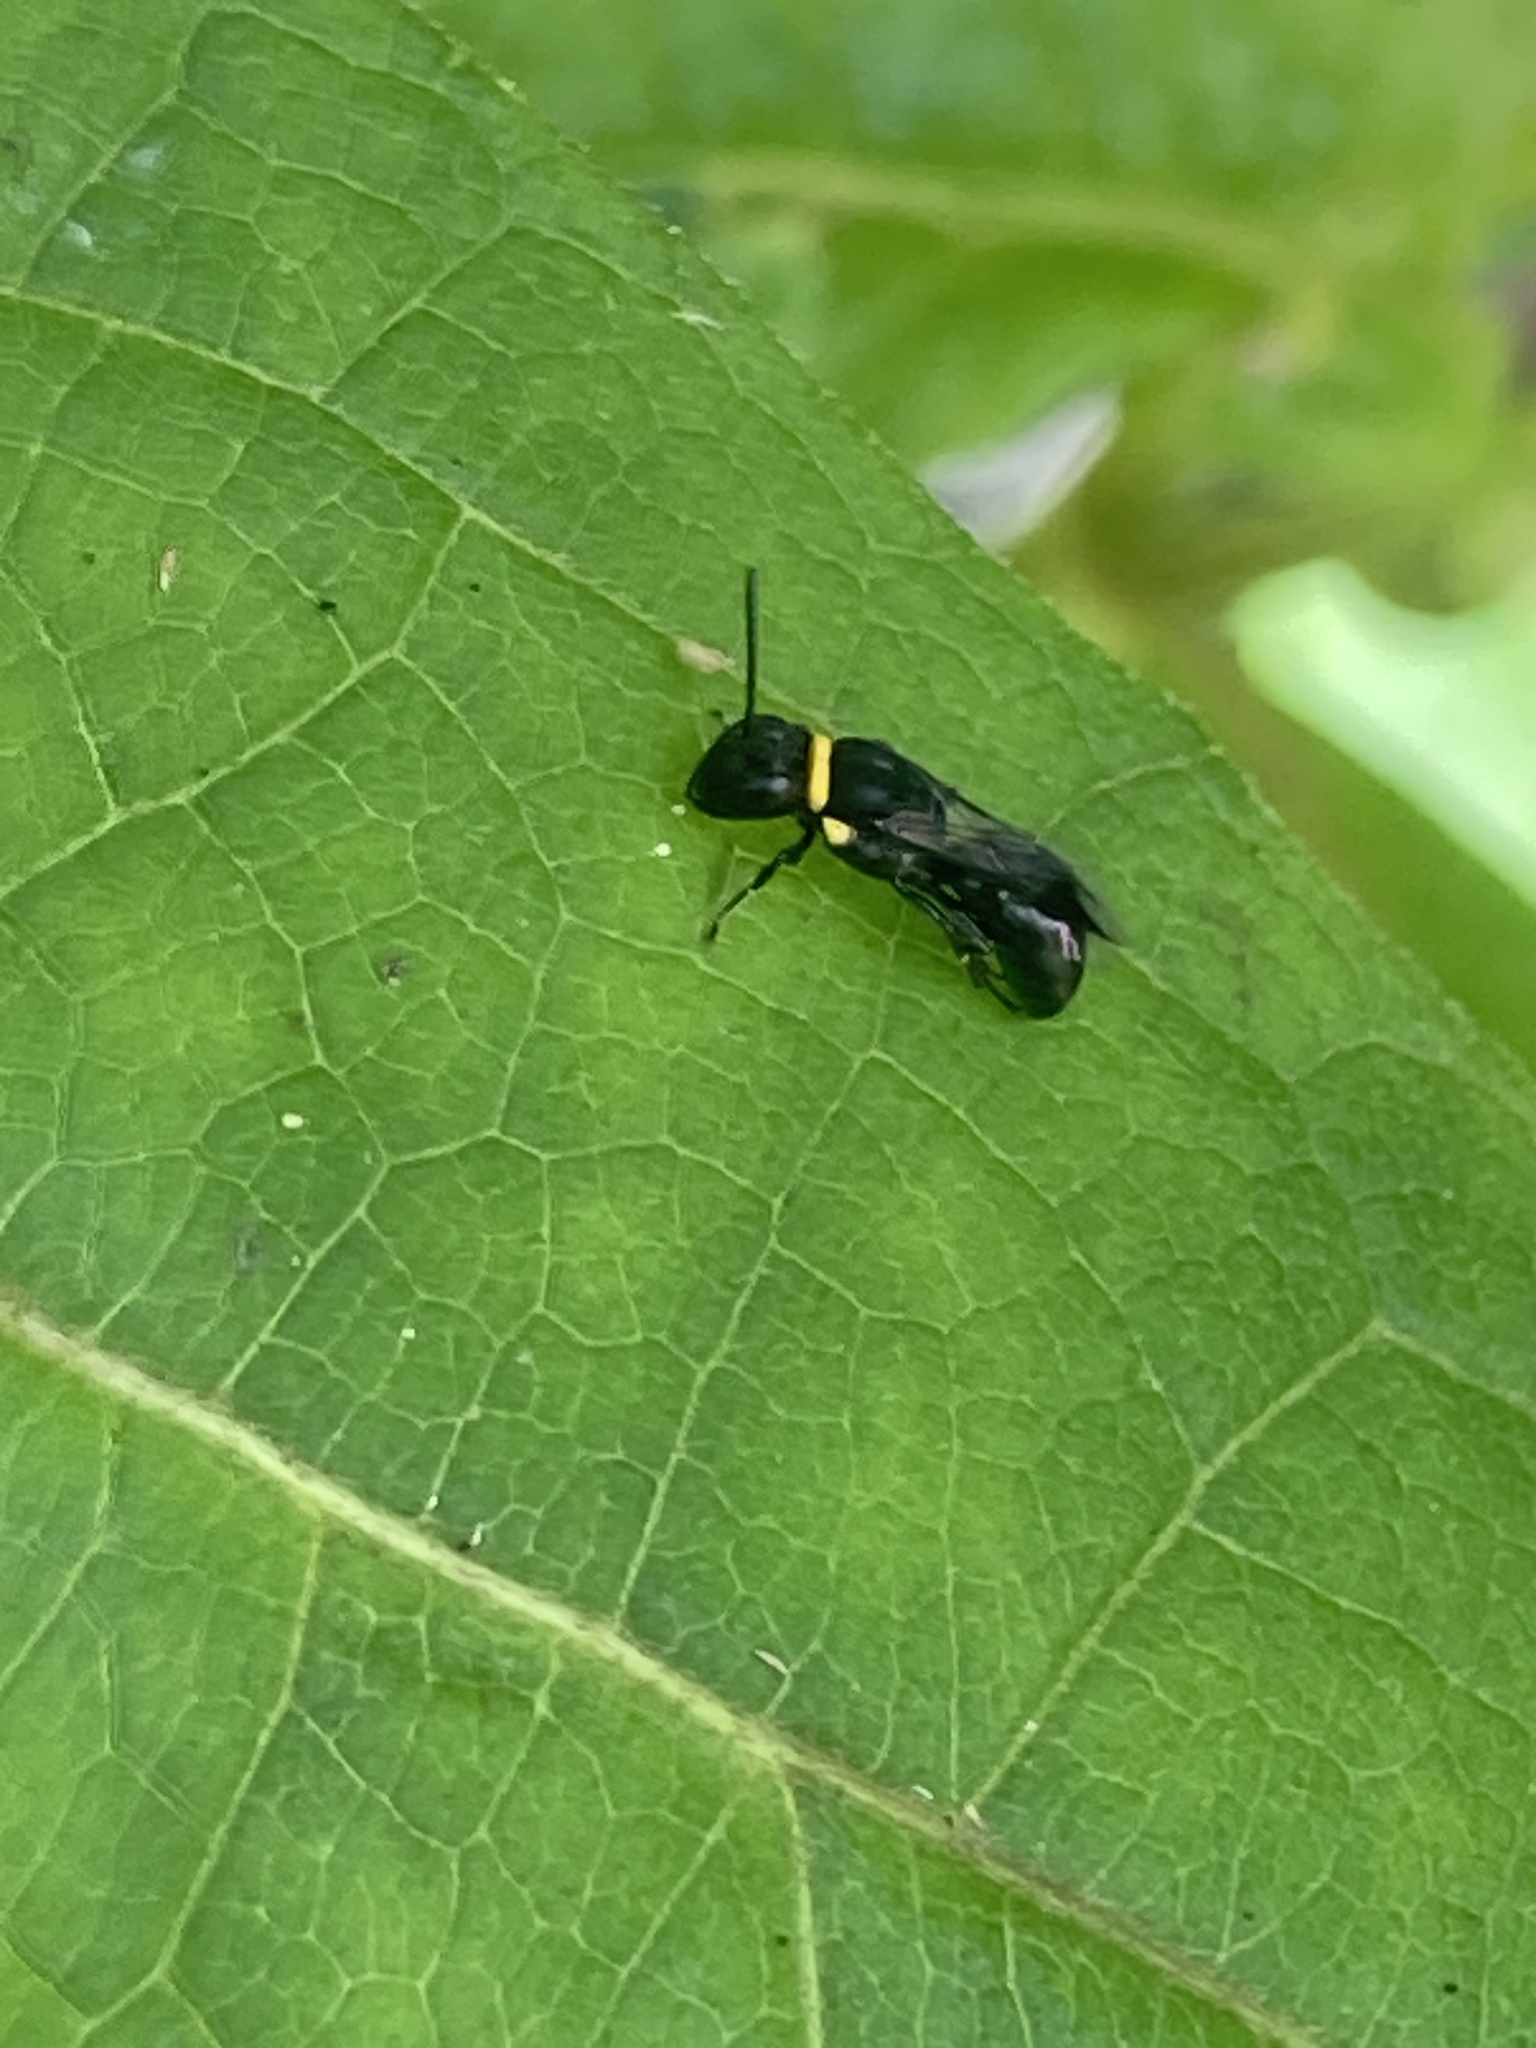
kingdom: Animalia
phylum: Arthropoda
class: Insecta
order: Hymenoptera
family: Colletidae
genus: Hylaeus
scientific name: Hylaeus primulipictus
